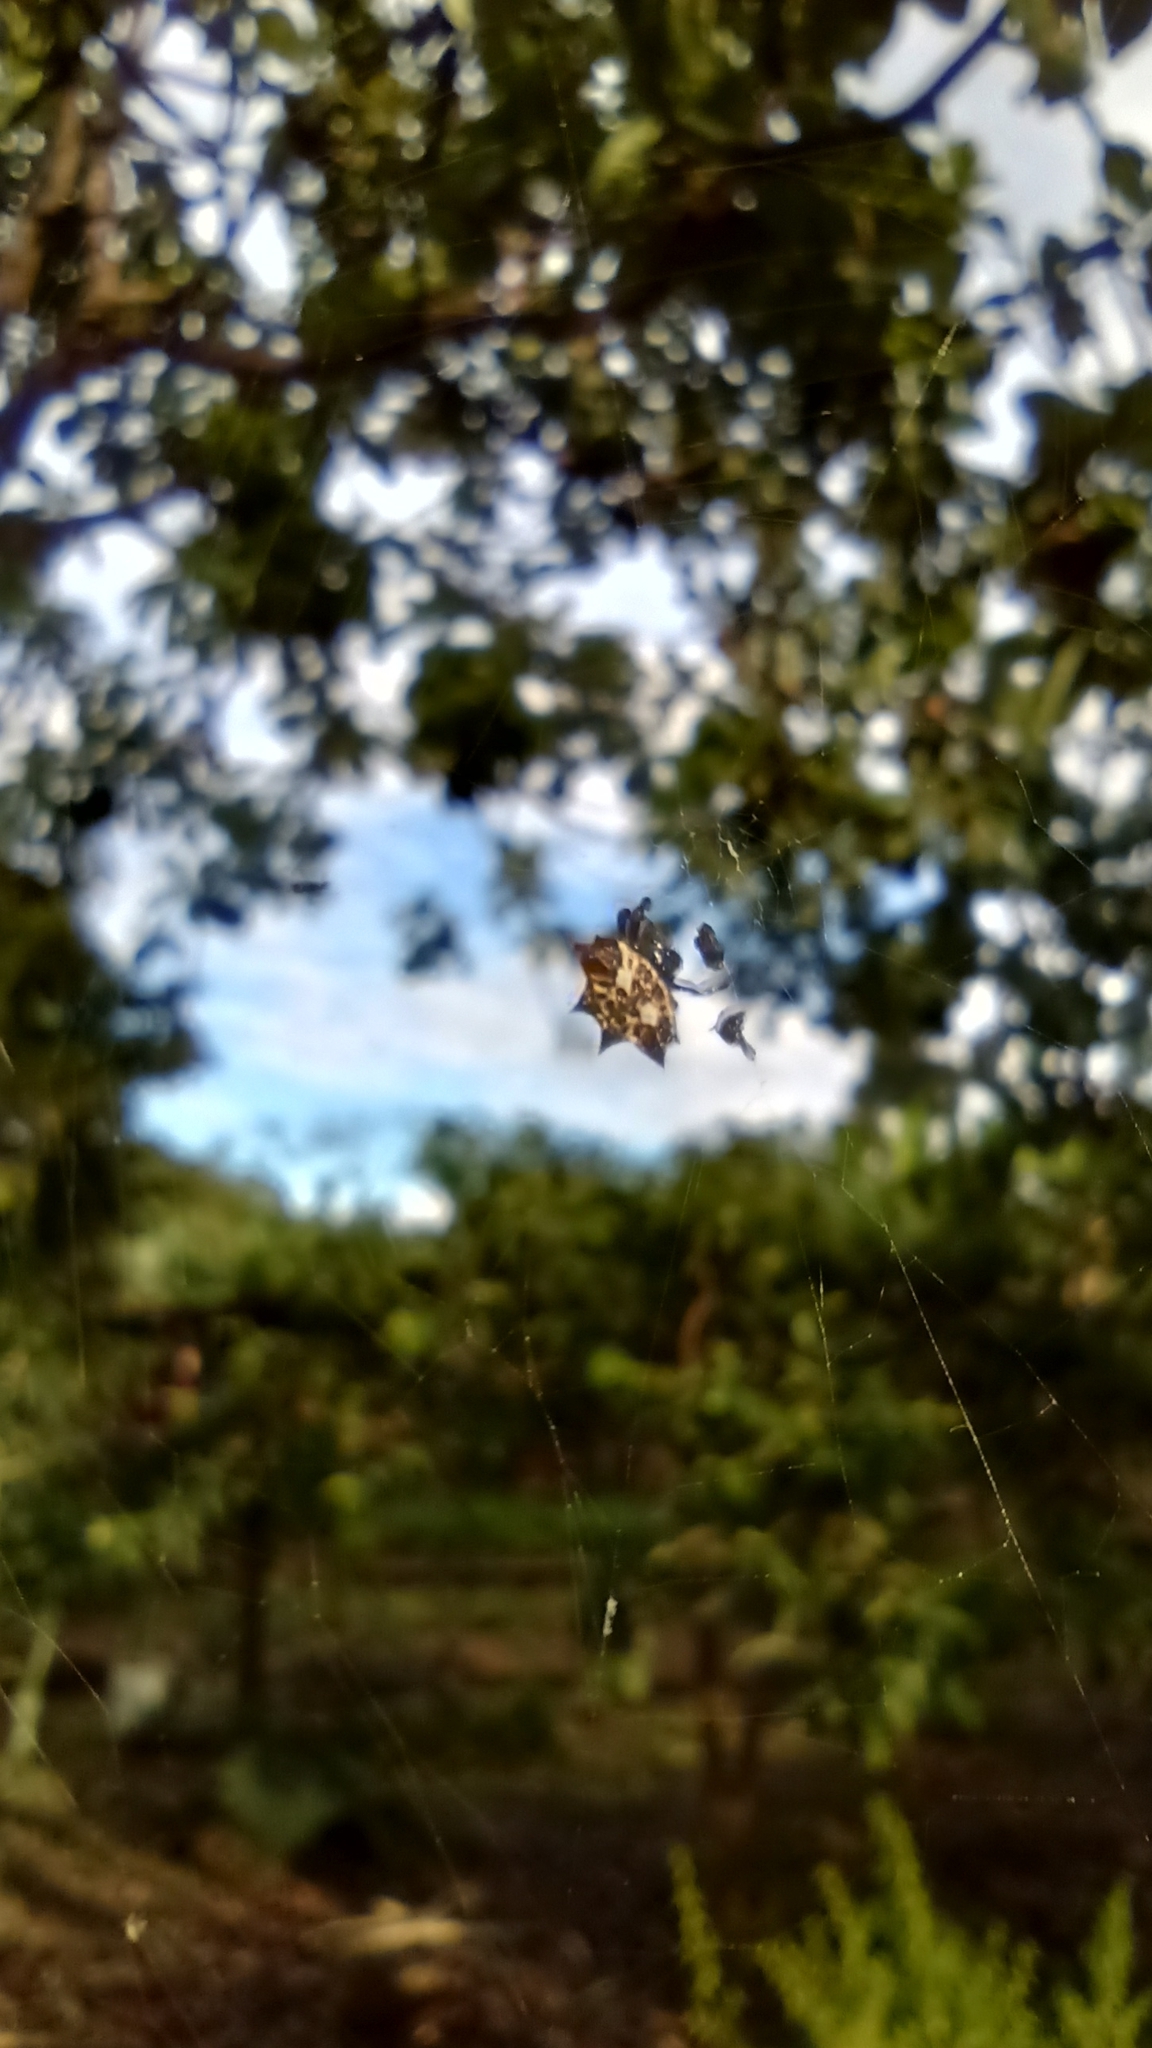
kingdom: Animalia
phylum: Arthropoda
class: Arachnida
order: Araneae
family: Araneidae
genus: Gasteracantha
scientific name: Gasteracantha cancriformis
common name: Orb weavers
